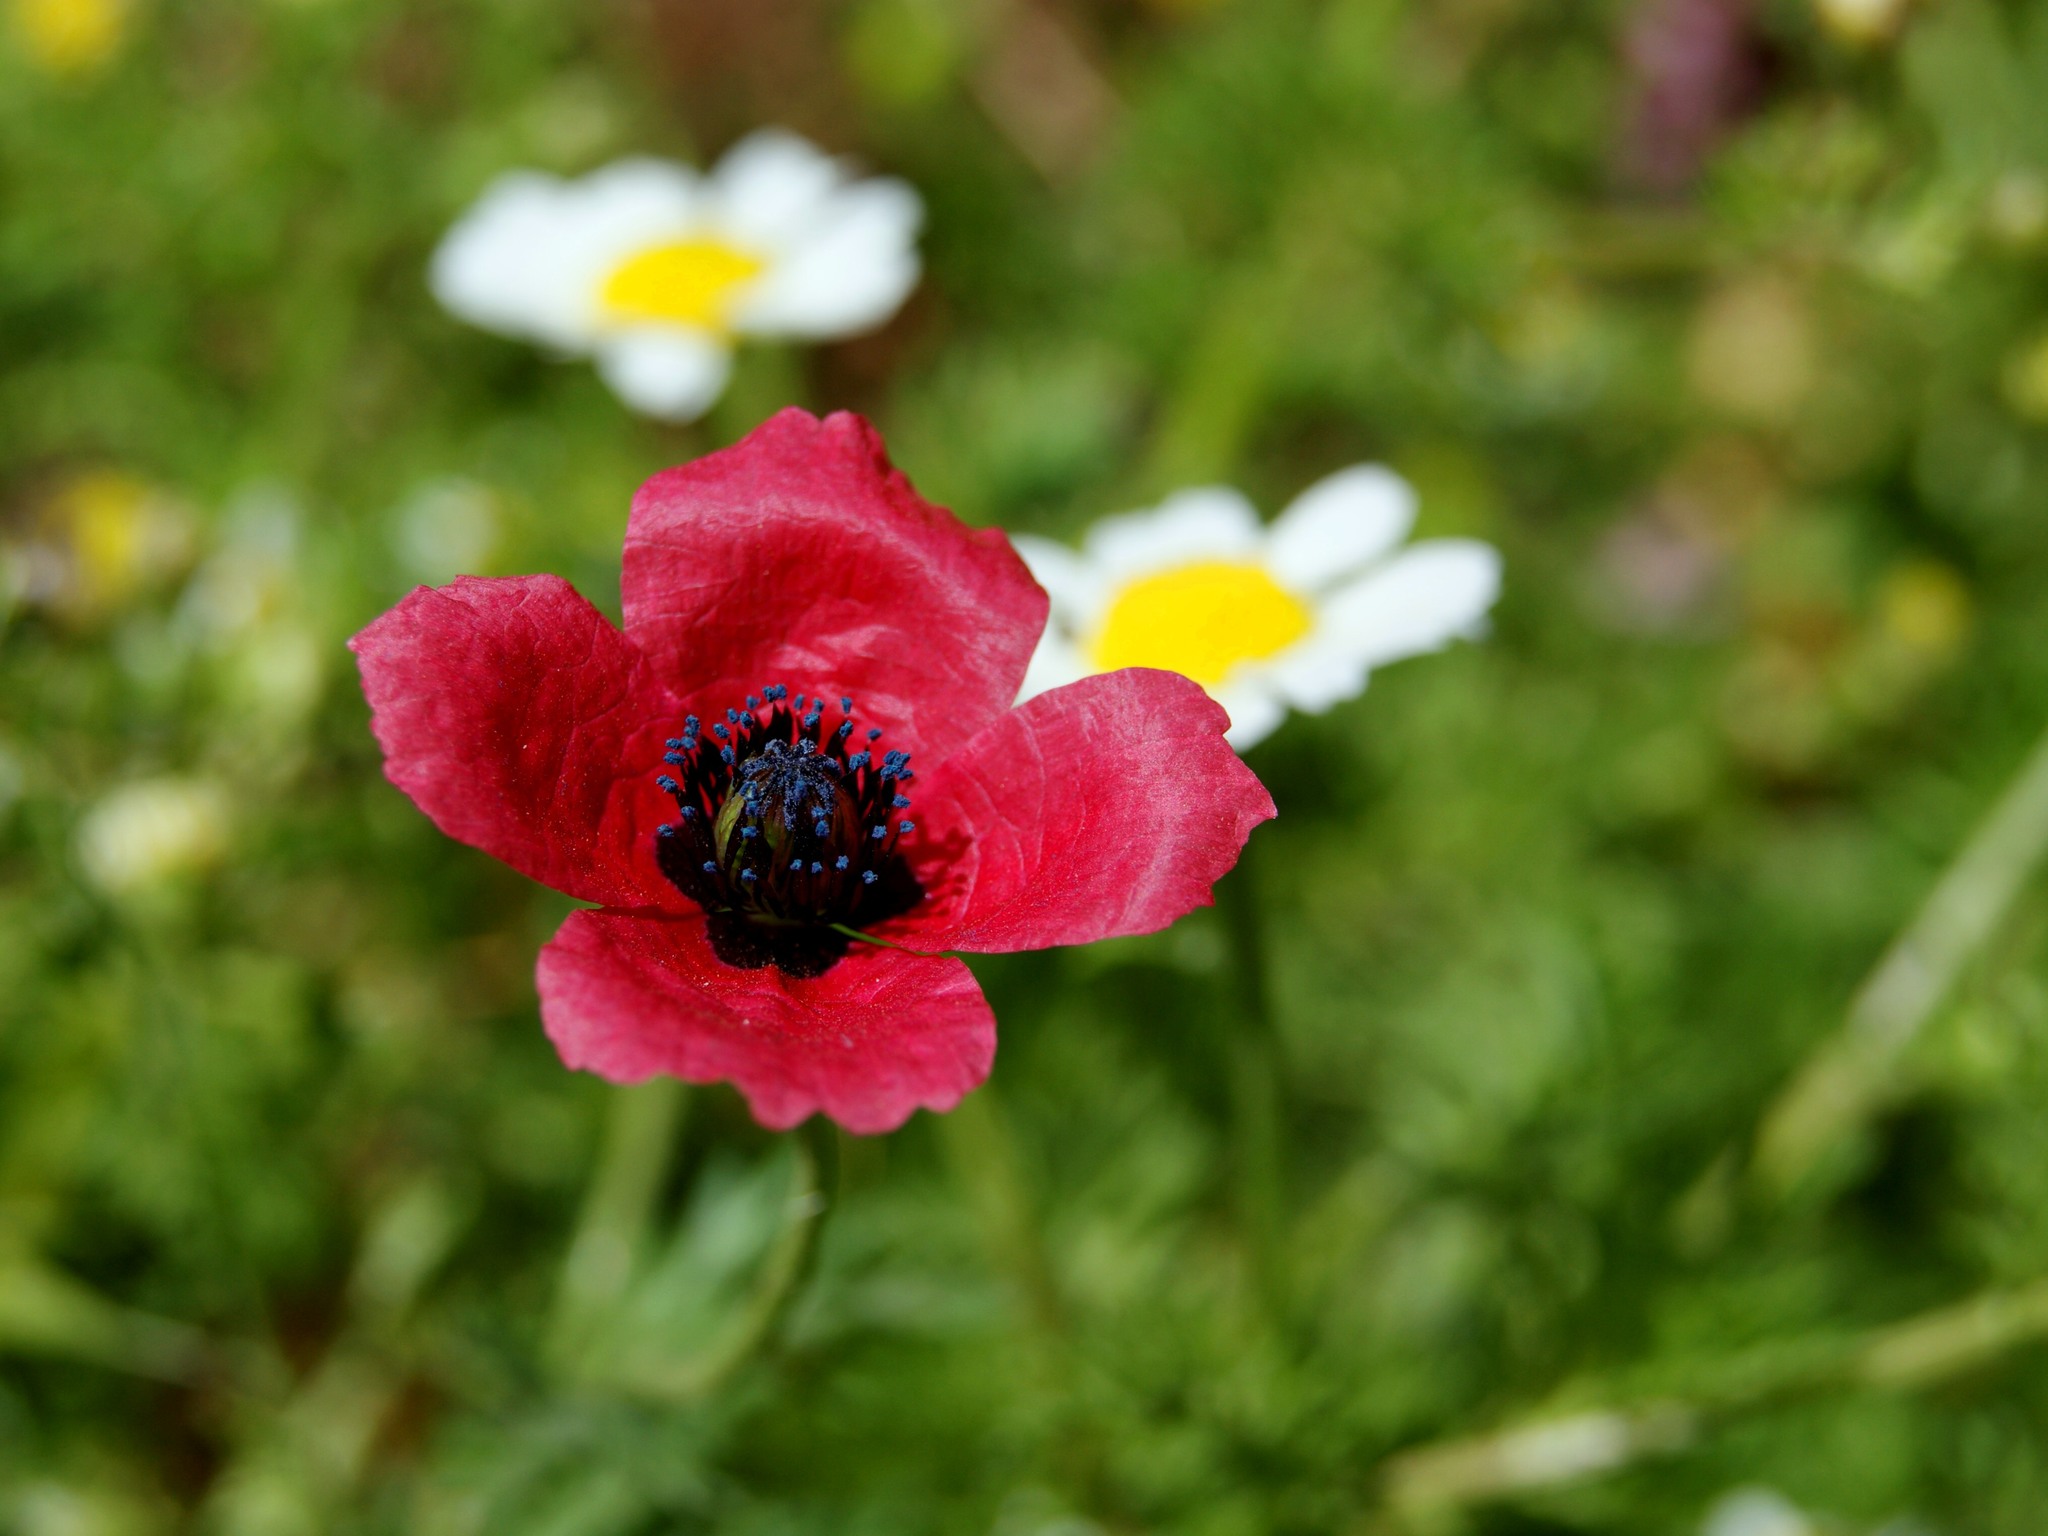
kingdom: Plantae
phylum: Tracheophyta
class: Magnoliopsida
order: Ranunculales
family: Papaveraceae
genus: Roemeria
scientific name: Roemeria hispida
